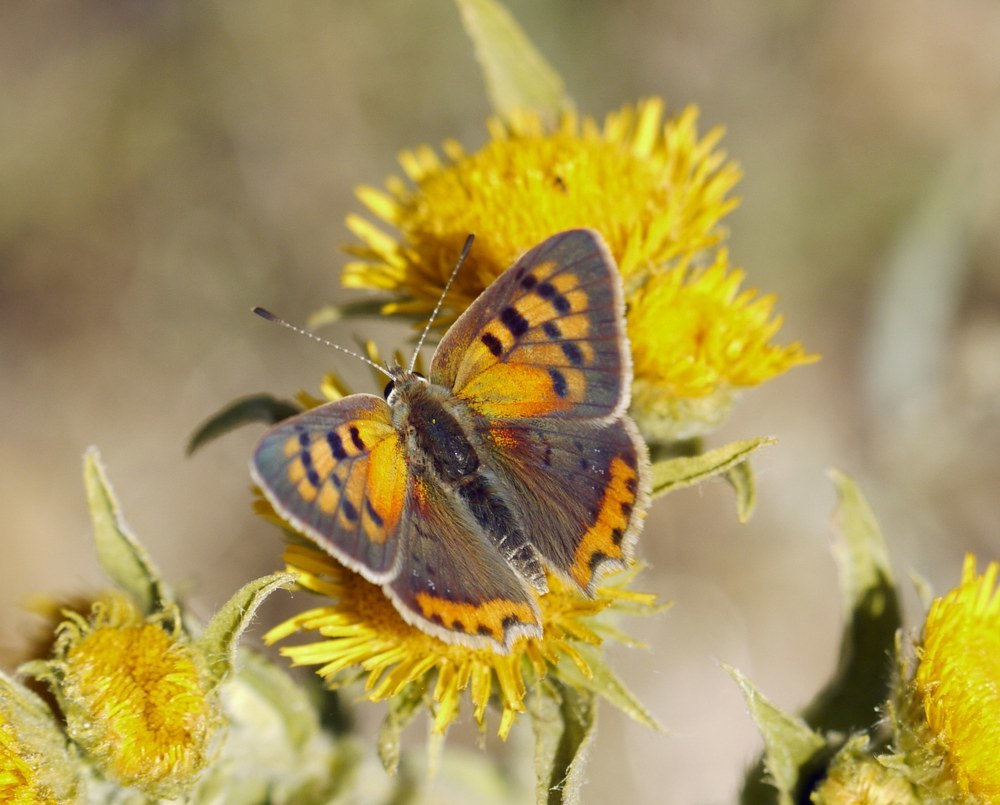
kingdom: Animalia
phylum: Arthropoda
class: Insecta
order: Lepidoptera
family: Lycaenidae
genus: Lycaena
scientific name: Lycaena phlaeas
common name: Small copper
